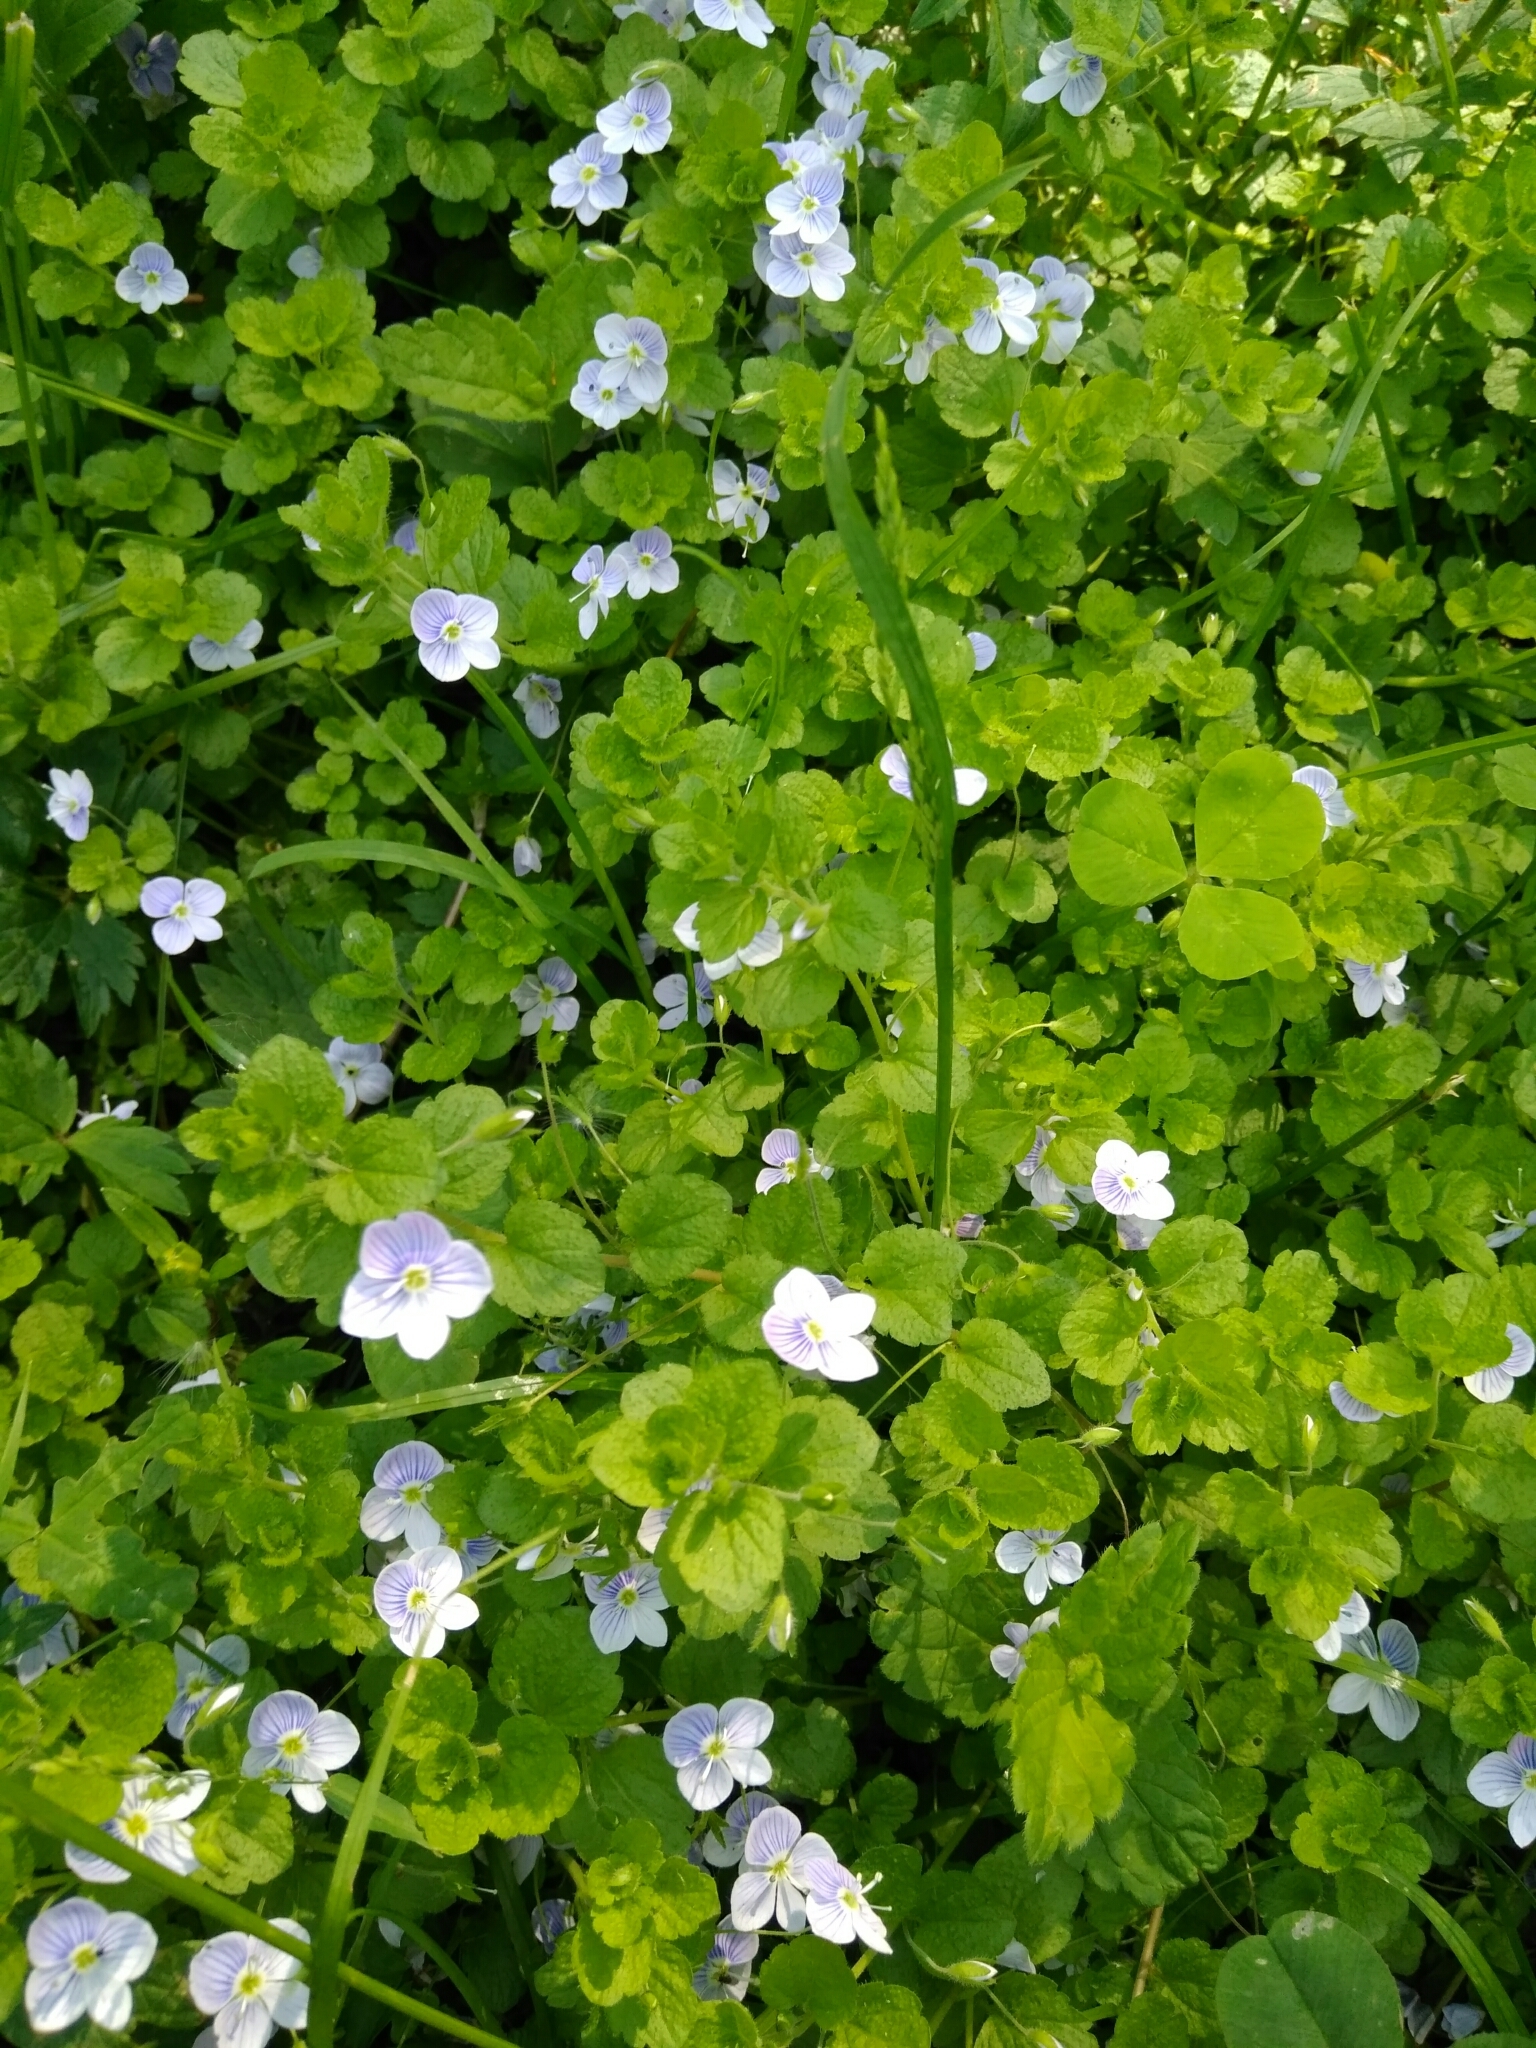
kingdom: Plantae
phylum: Tracheophyta
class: Magnoliopsida
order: Lamiales
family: Plantaginaceae
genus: Veronica
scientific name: Veronica filiformis
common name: Slender speedwell
